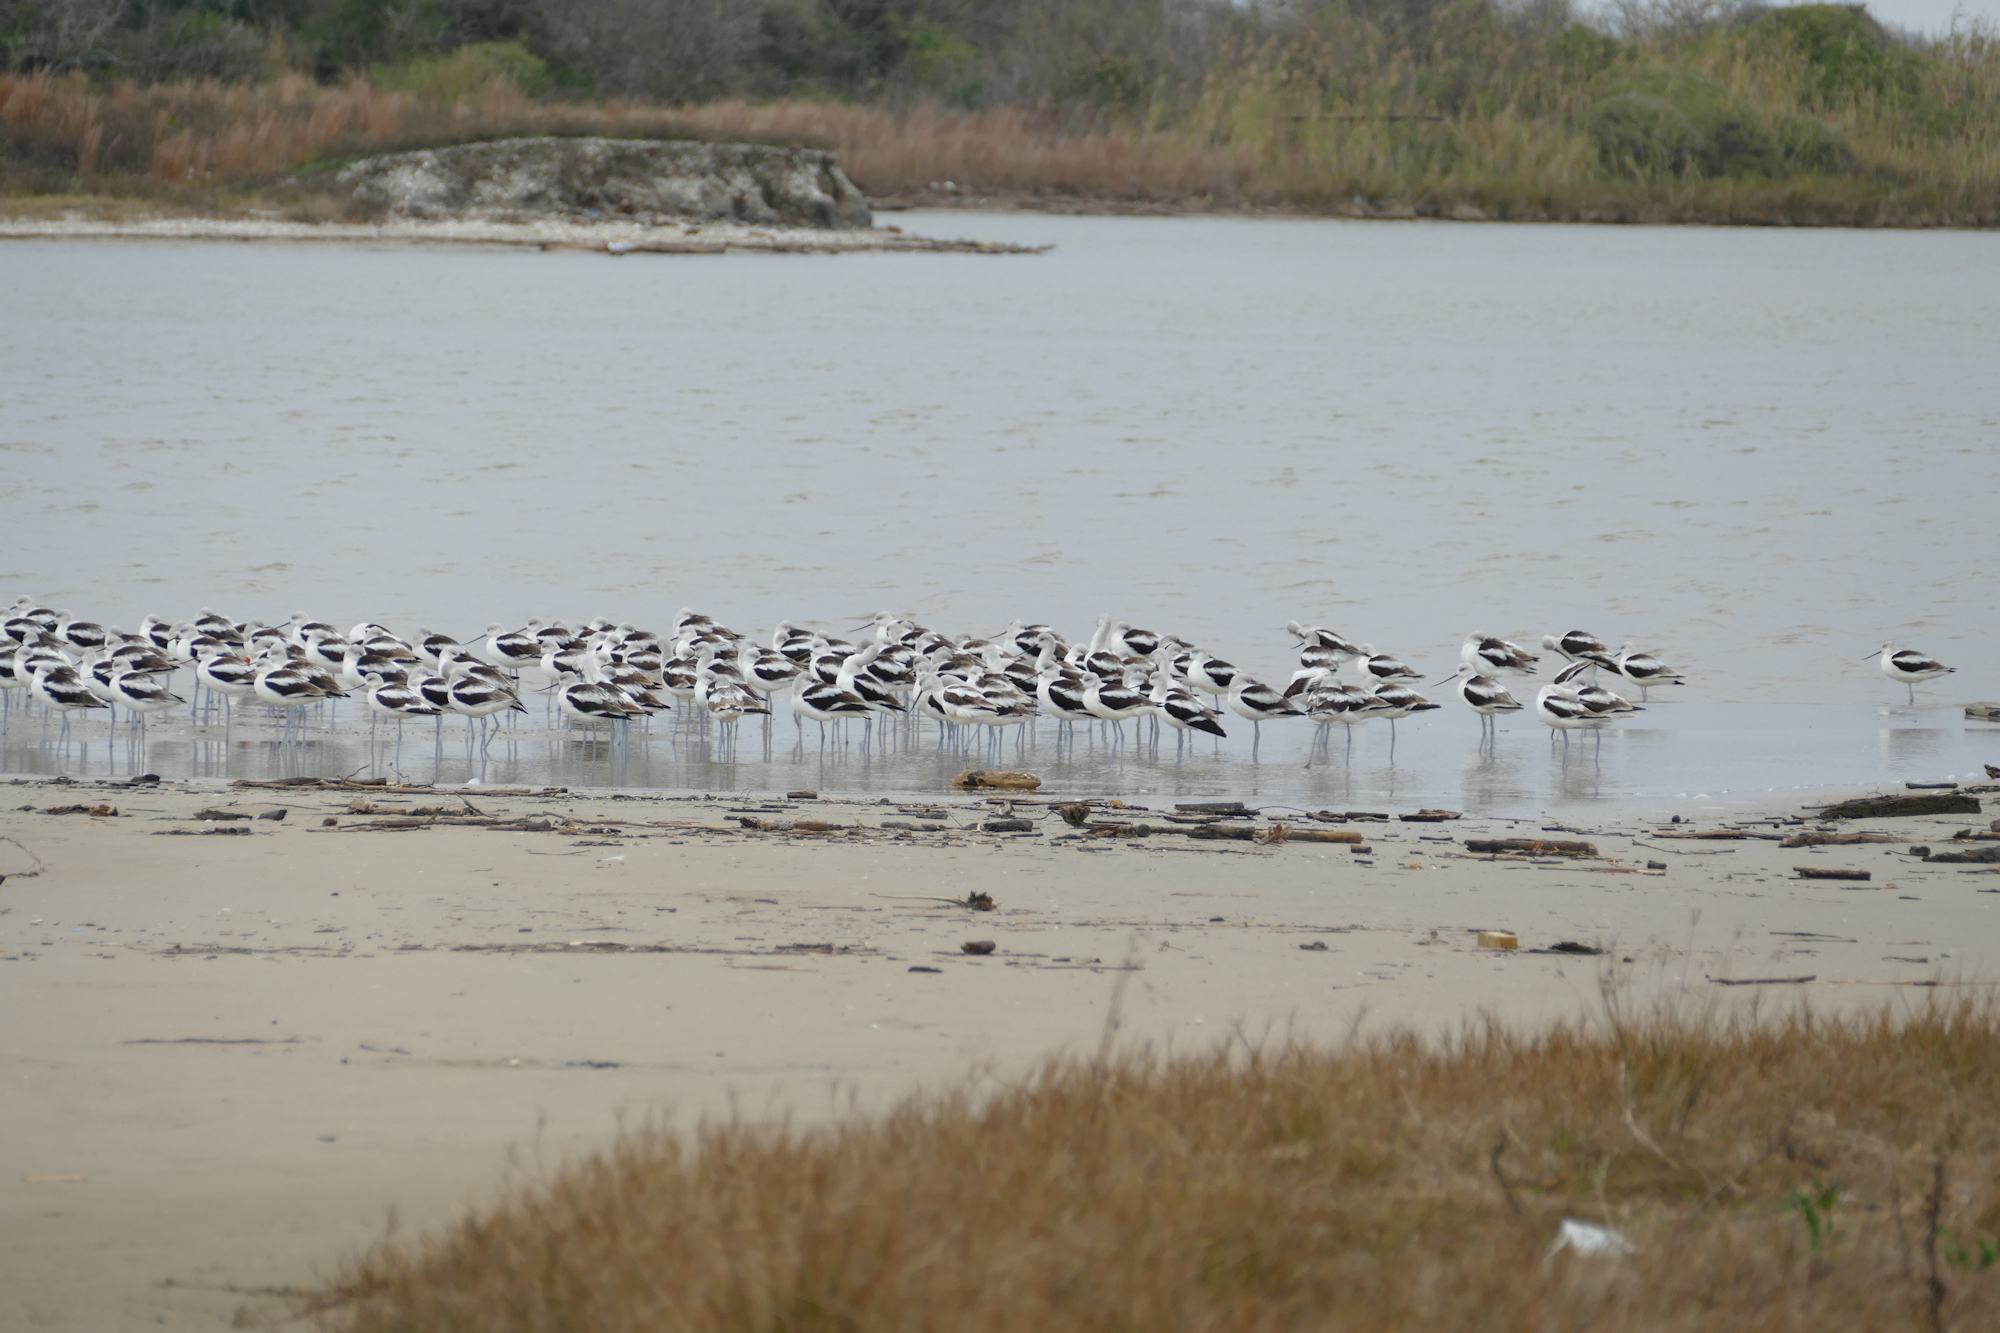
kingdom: Animalia
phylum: Chordata
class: Aves
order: Charadriiformes
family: Recurvirostridae
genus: Recurvirostra
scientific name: Recurvirostra americana
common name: American avocet
